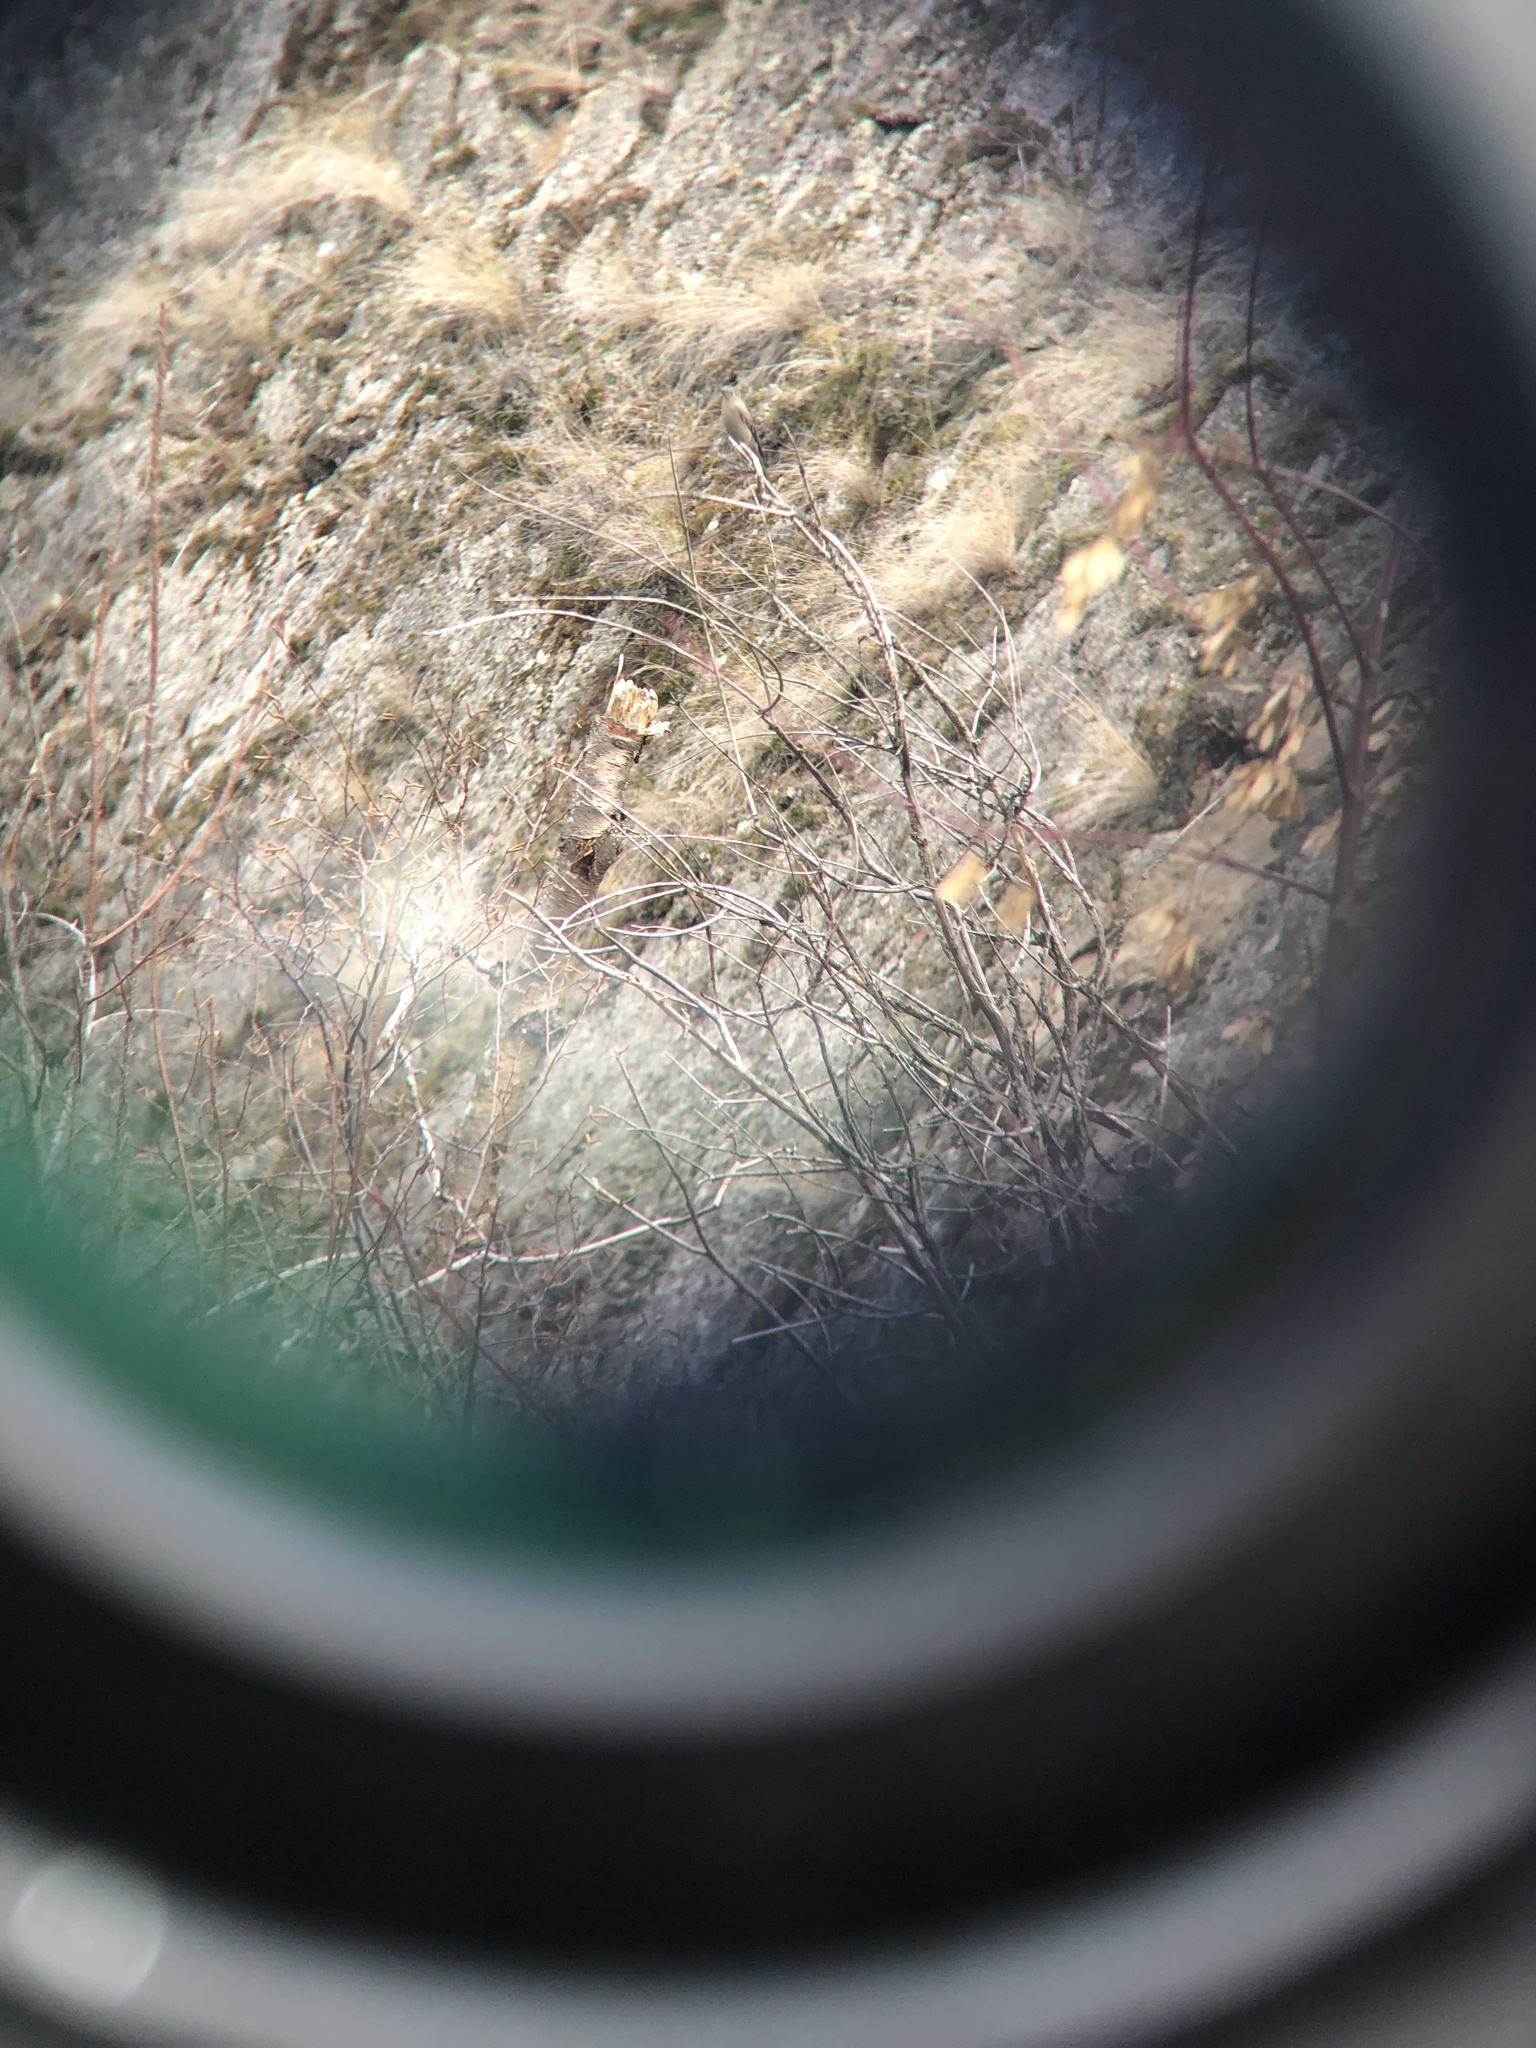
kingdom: Animalia
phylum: Chordata
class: Aves
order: Passeriformes
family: Turdidae
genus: Myadestes
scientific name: Myadestes townsendi
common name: Townsend's solitaire
